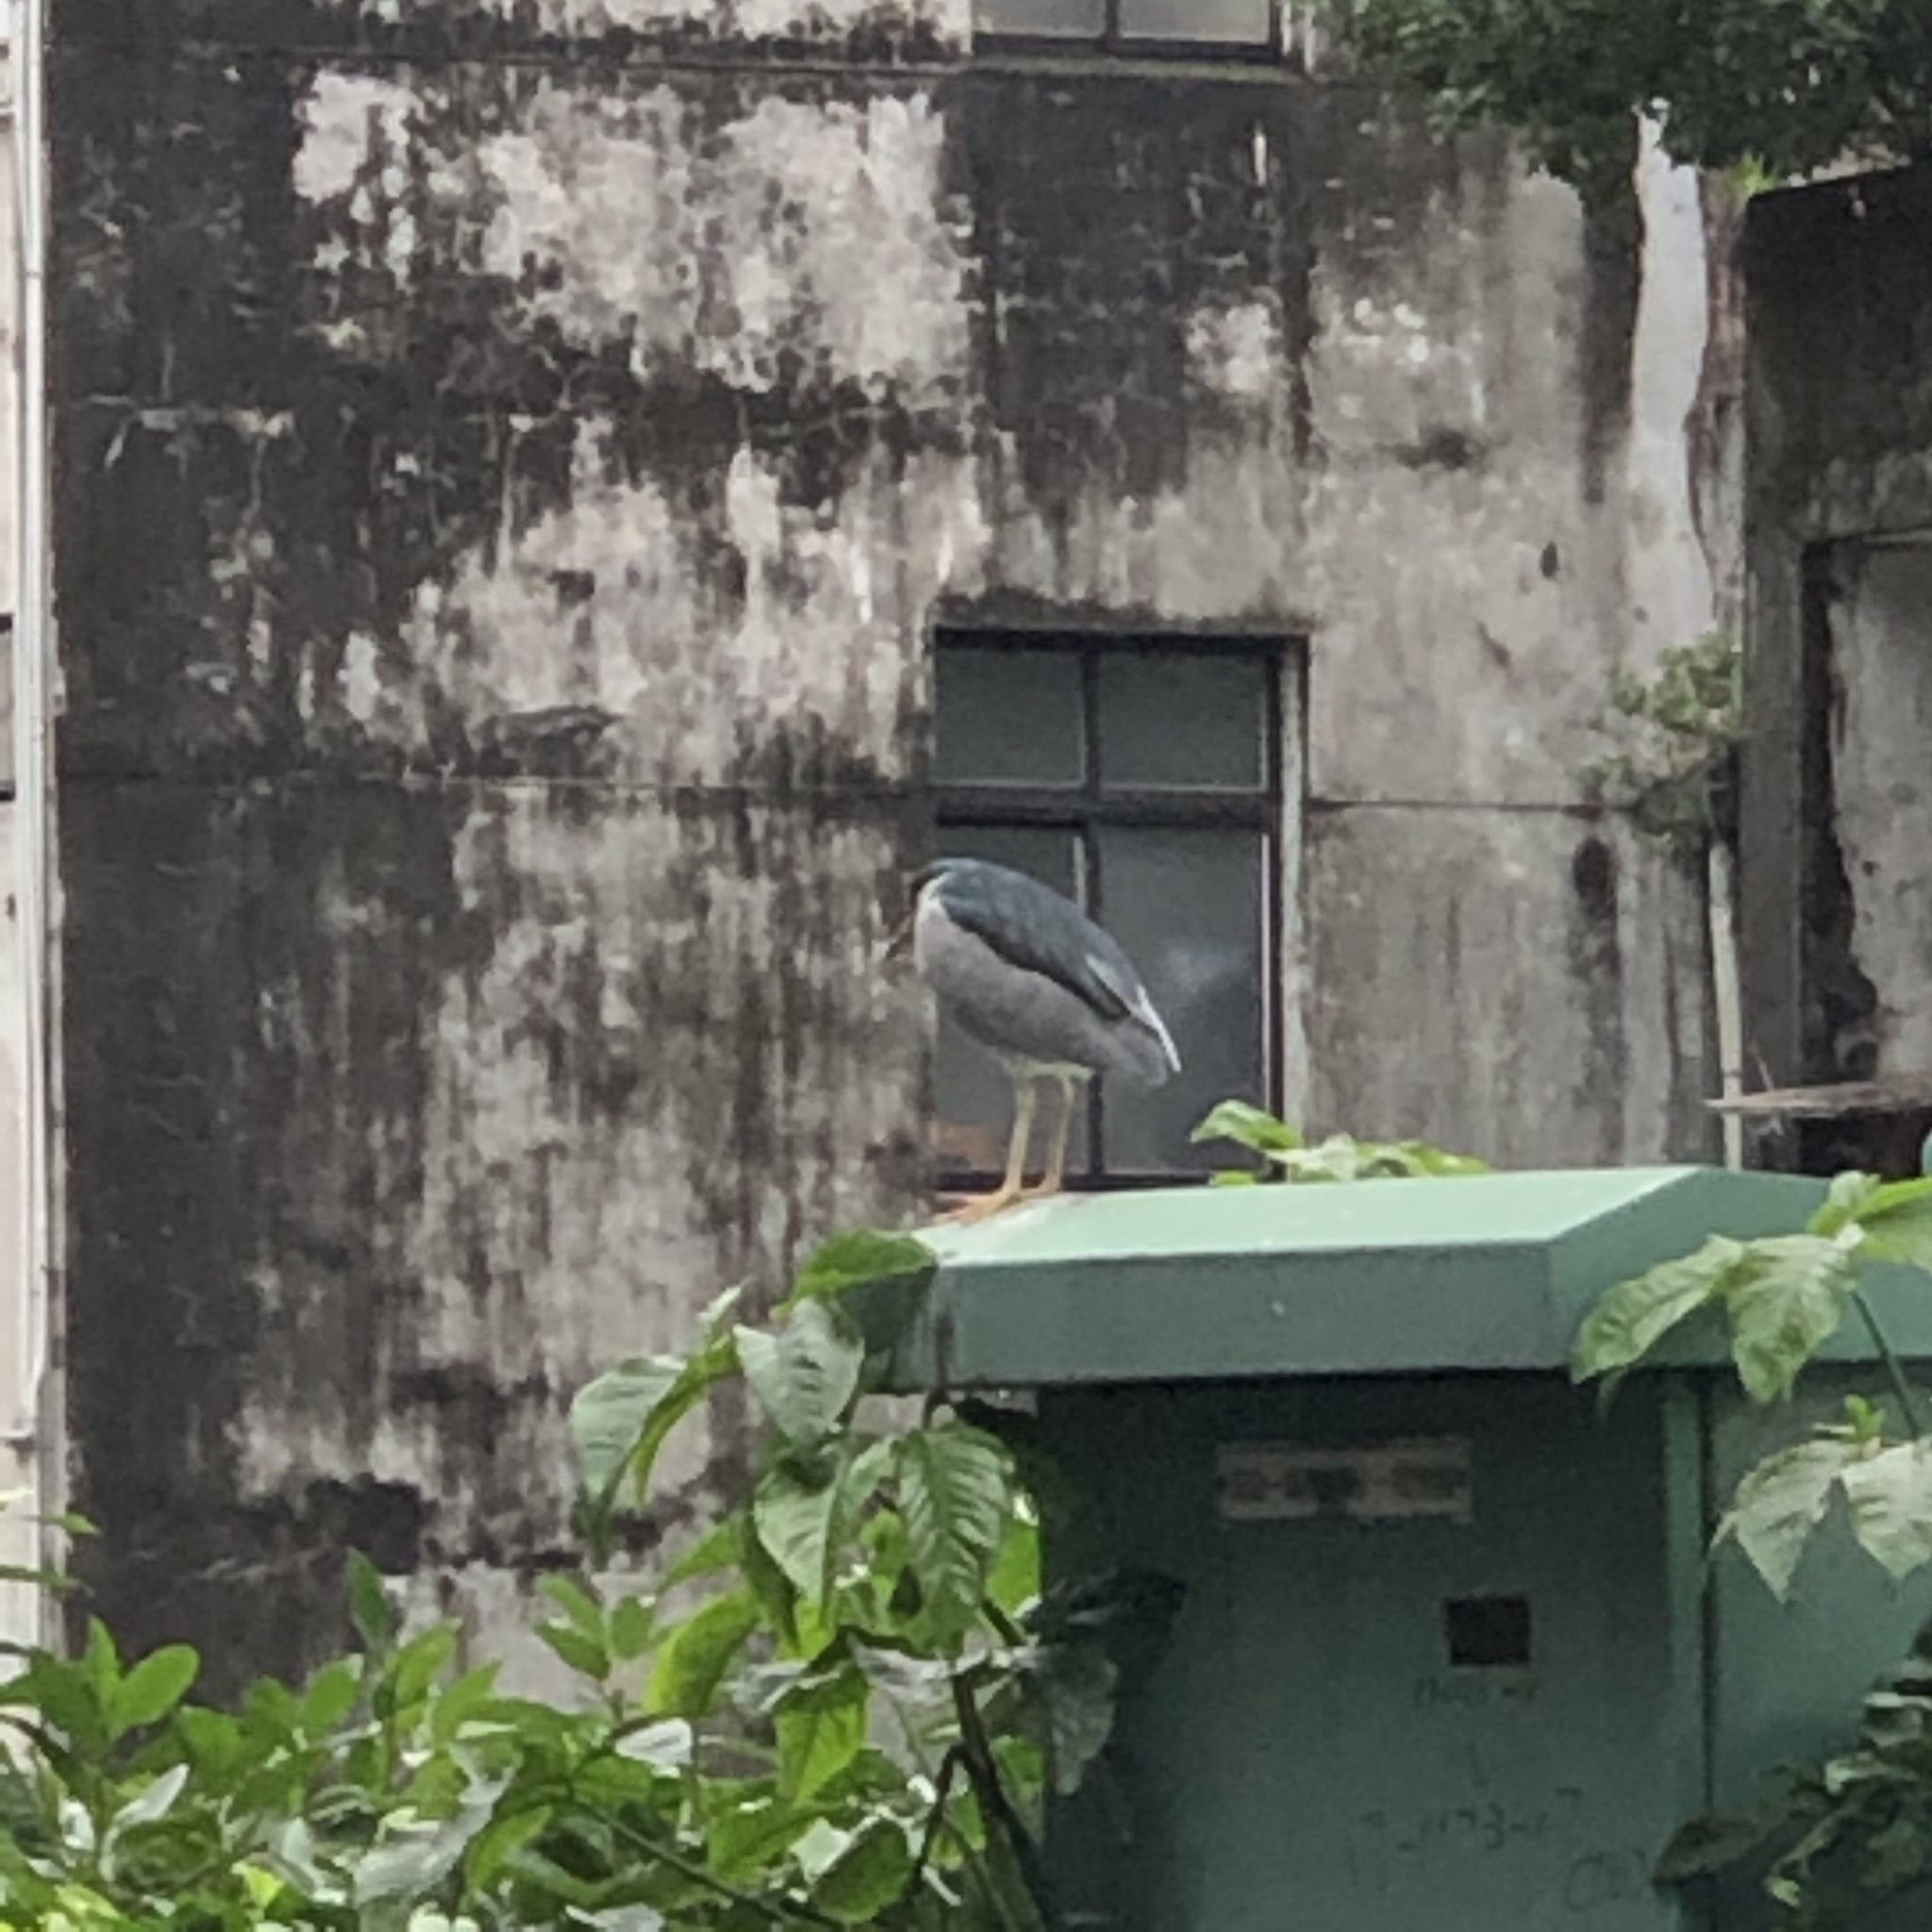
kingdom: Animalia
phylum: Chordata
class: Aves
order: Pelecaniformes
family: Ardeidae
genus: Nycticorax
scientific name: Nycticorax nycticorax
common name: Black-crowned night heron
